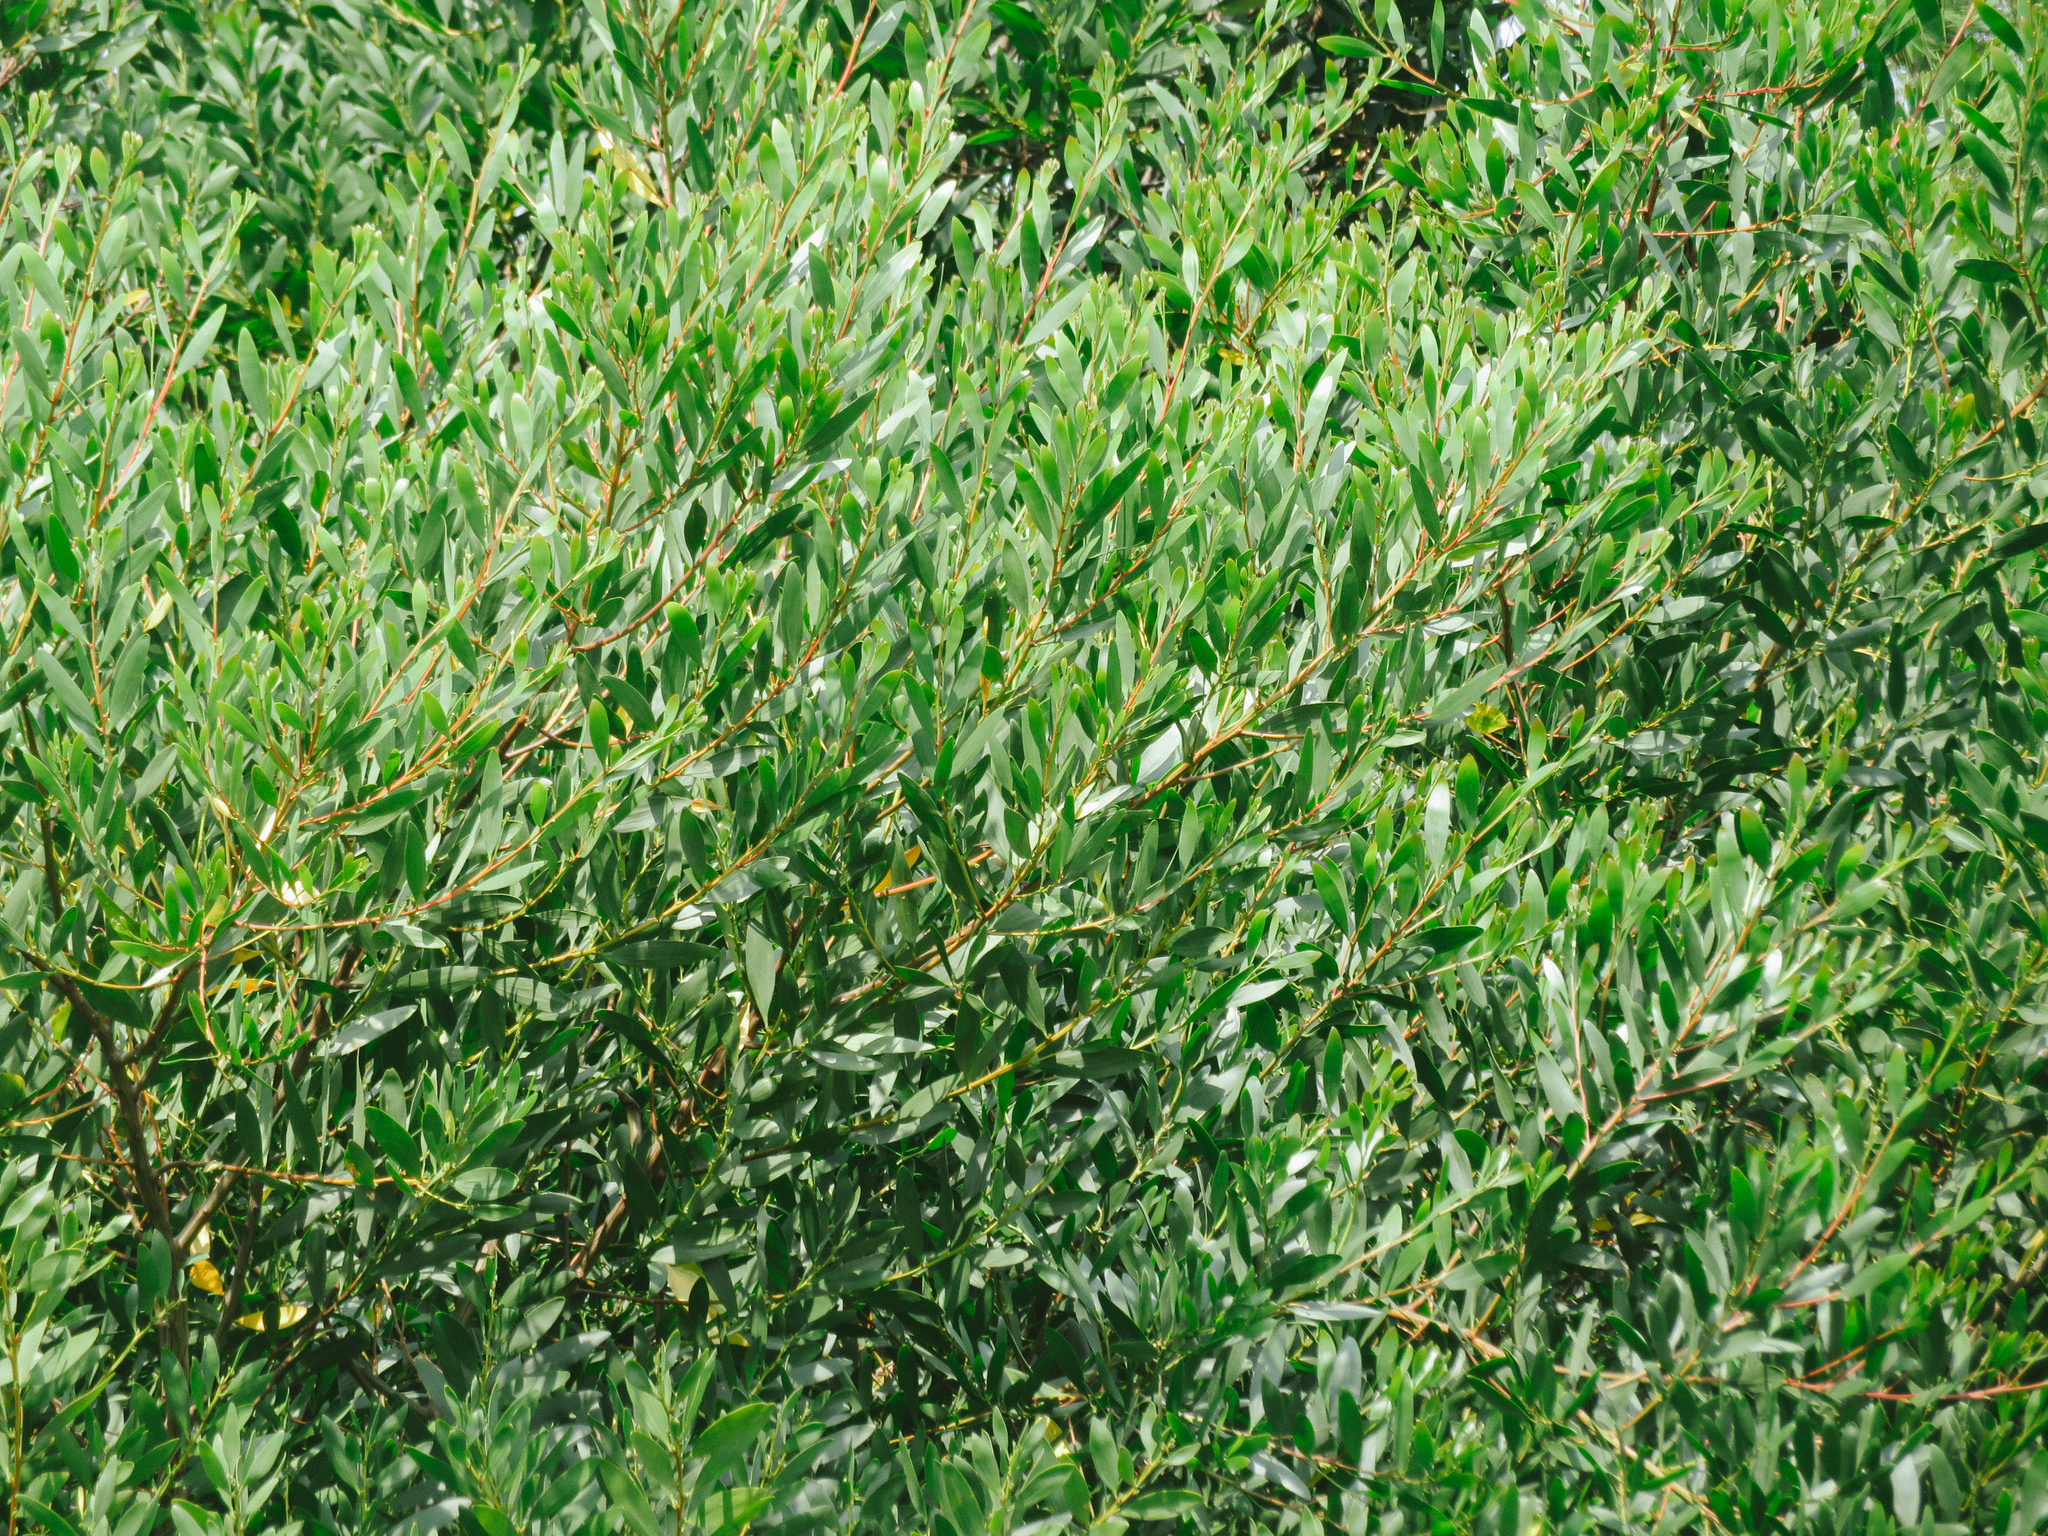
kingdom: Plantae
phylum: Tracheophyta
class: Magnoliopsida
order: Fabales
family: Fabaceae
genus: Acacia
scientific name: Acacia longifolia
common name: Sydney golden wattle
